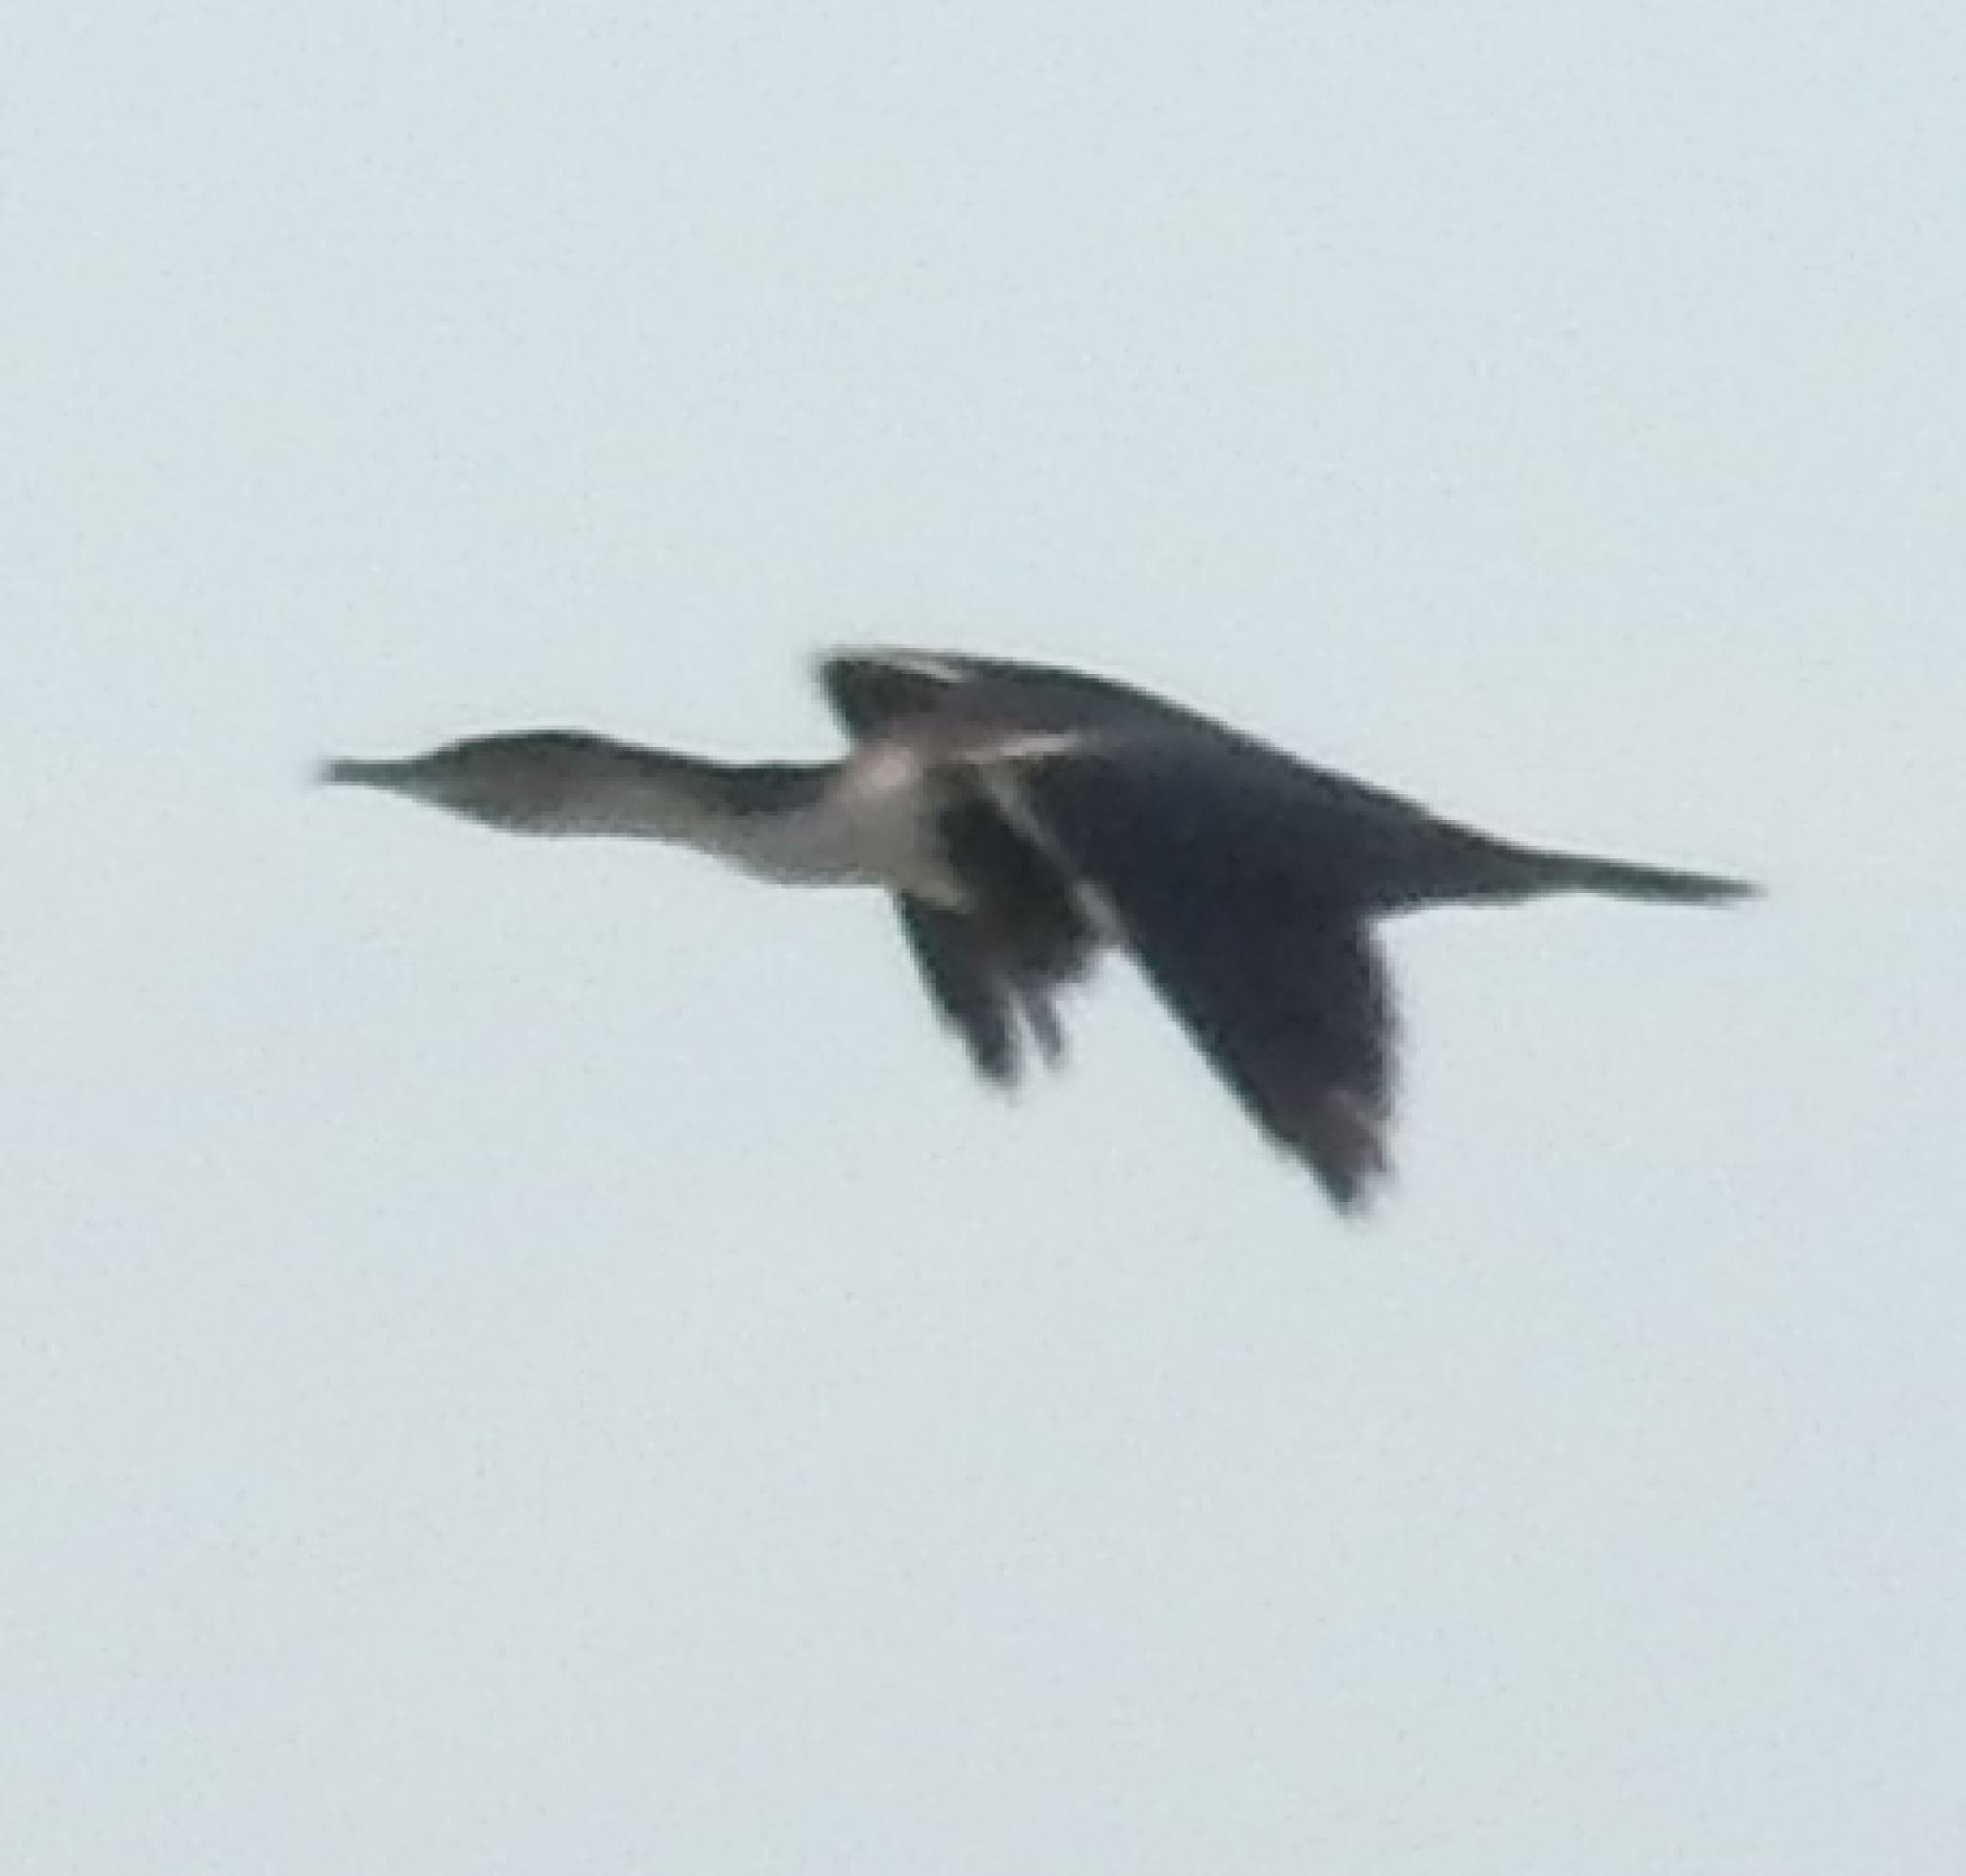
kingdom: Animalia
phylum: Chordata
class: Aves
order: Suliformes
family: Phalacrocoracidae
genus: Phalacrocorax
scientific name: Phalacrocorax carbo
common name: Great cormorant
